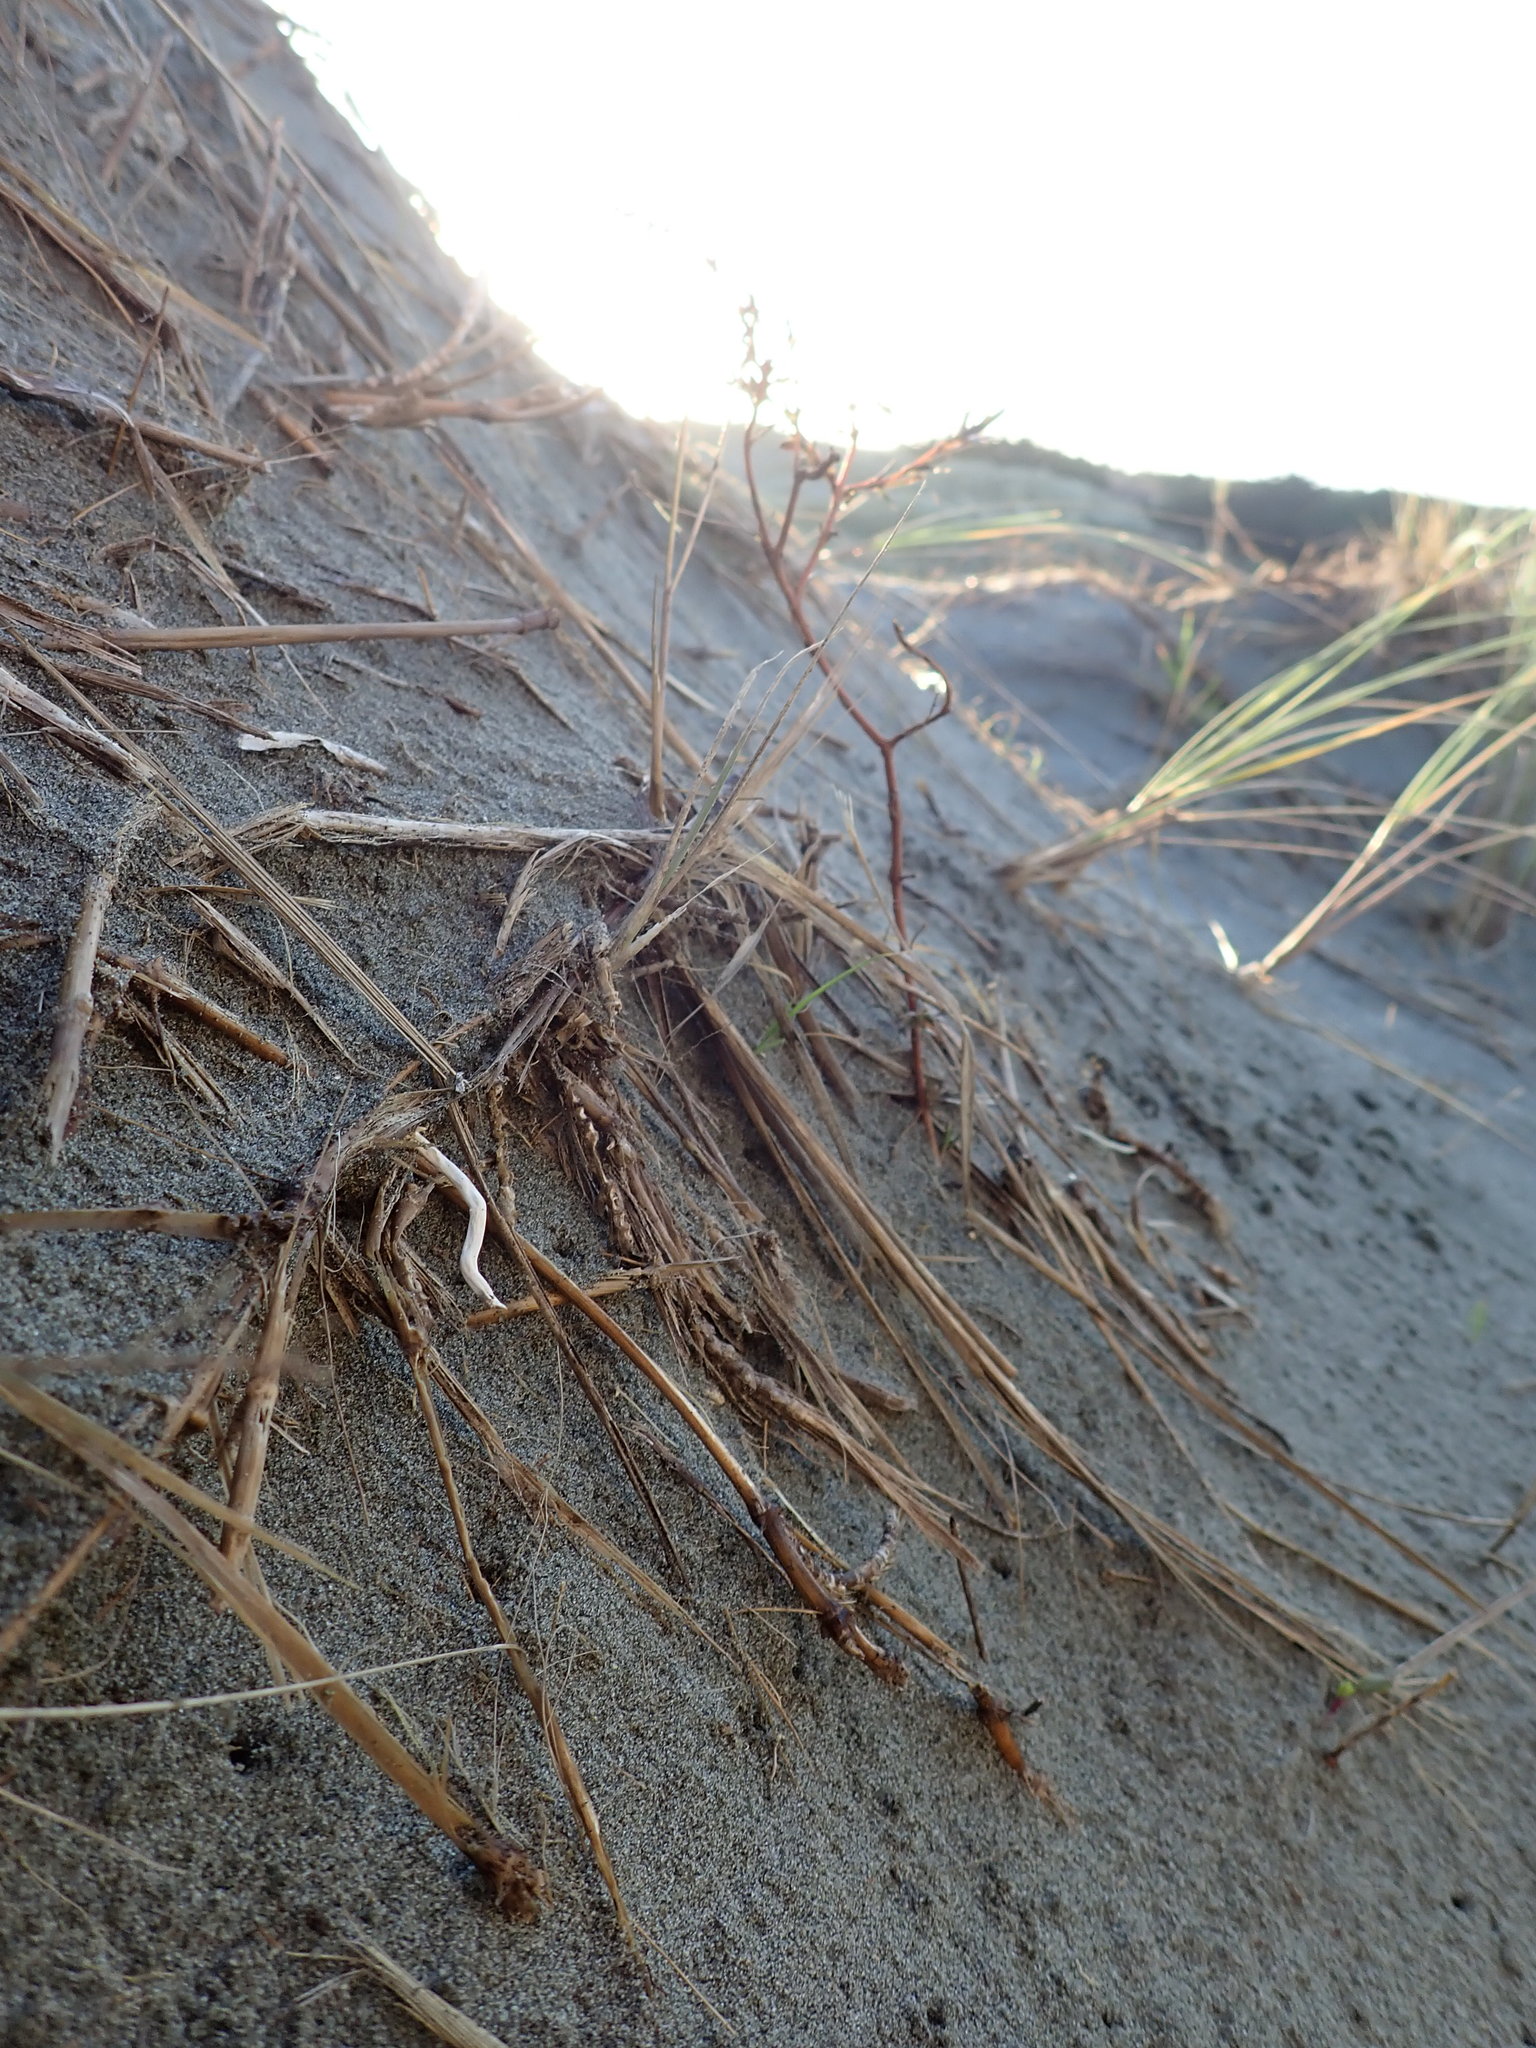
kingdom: Plantae
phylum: Tracheophyta
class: Magnoliopsida
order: Gentianales
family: Rubiaceae
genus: Coprosma
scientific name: Coprosma acerosa
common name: Sand coprosma
